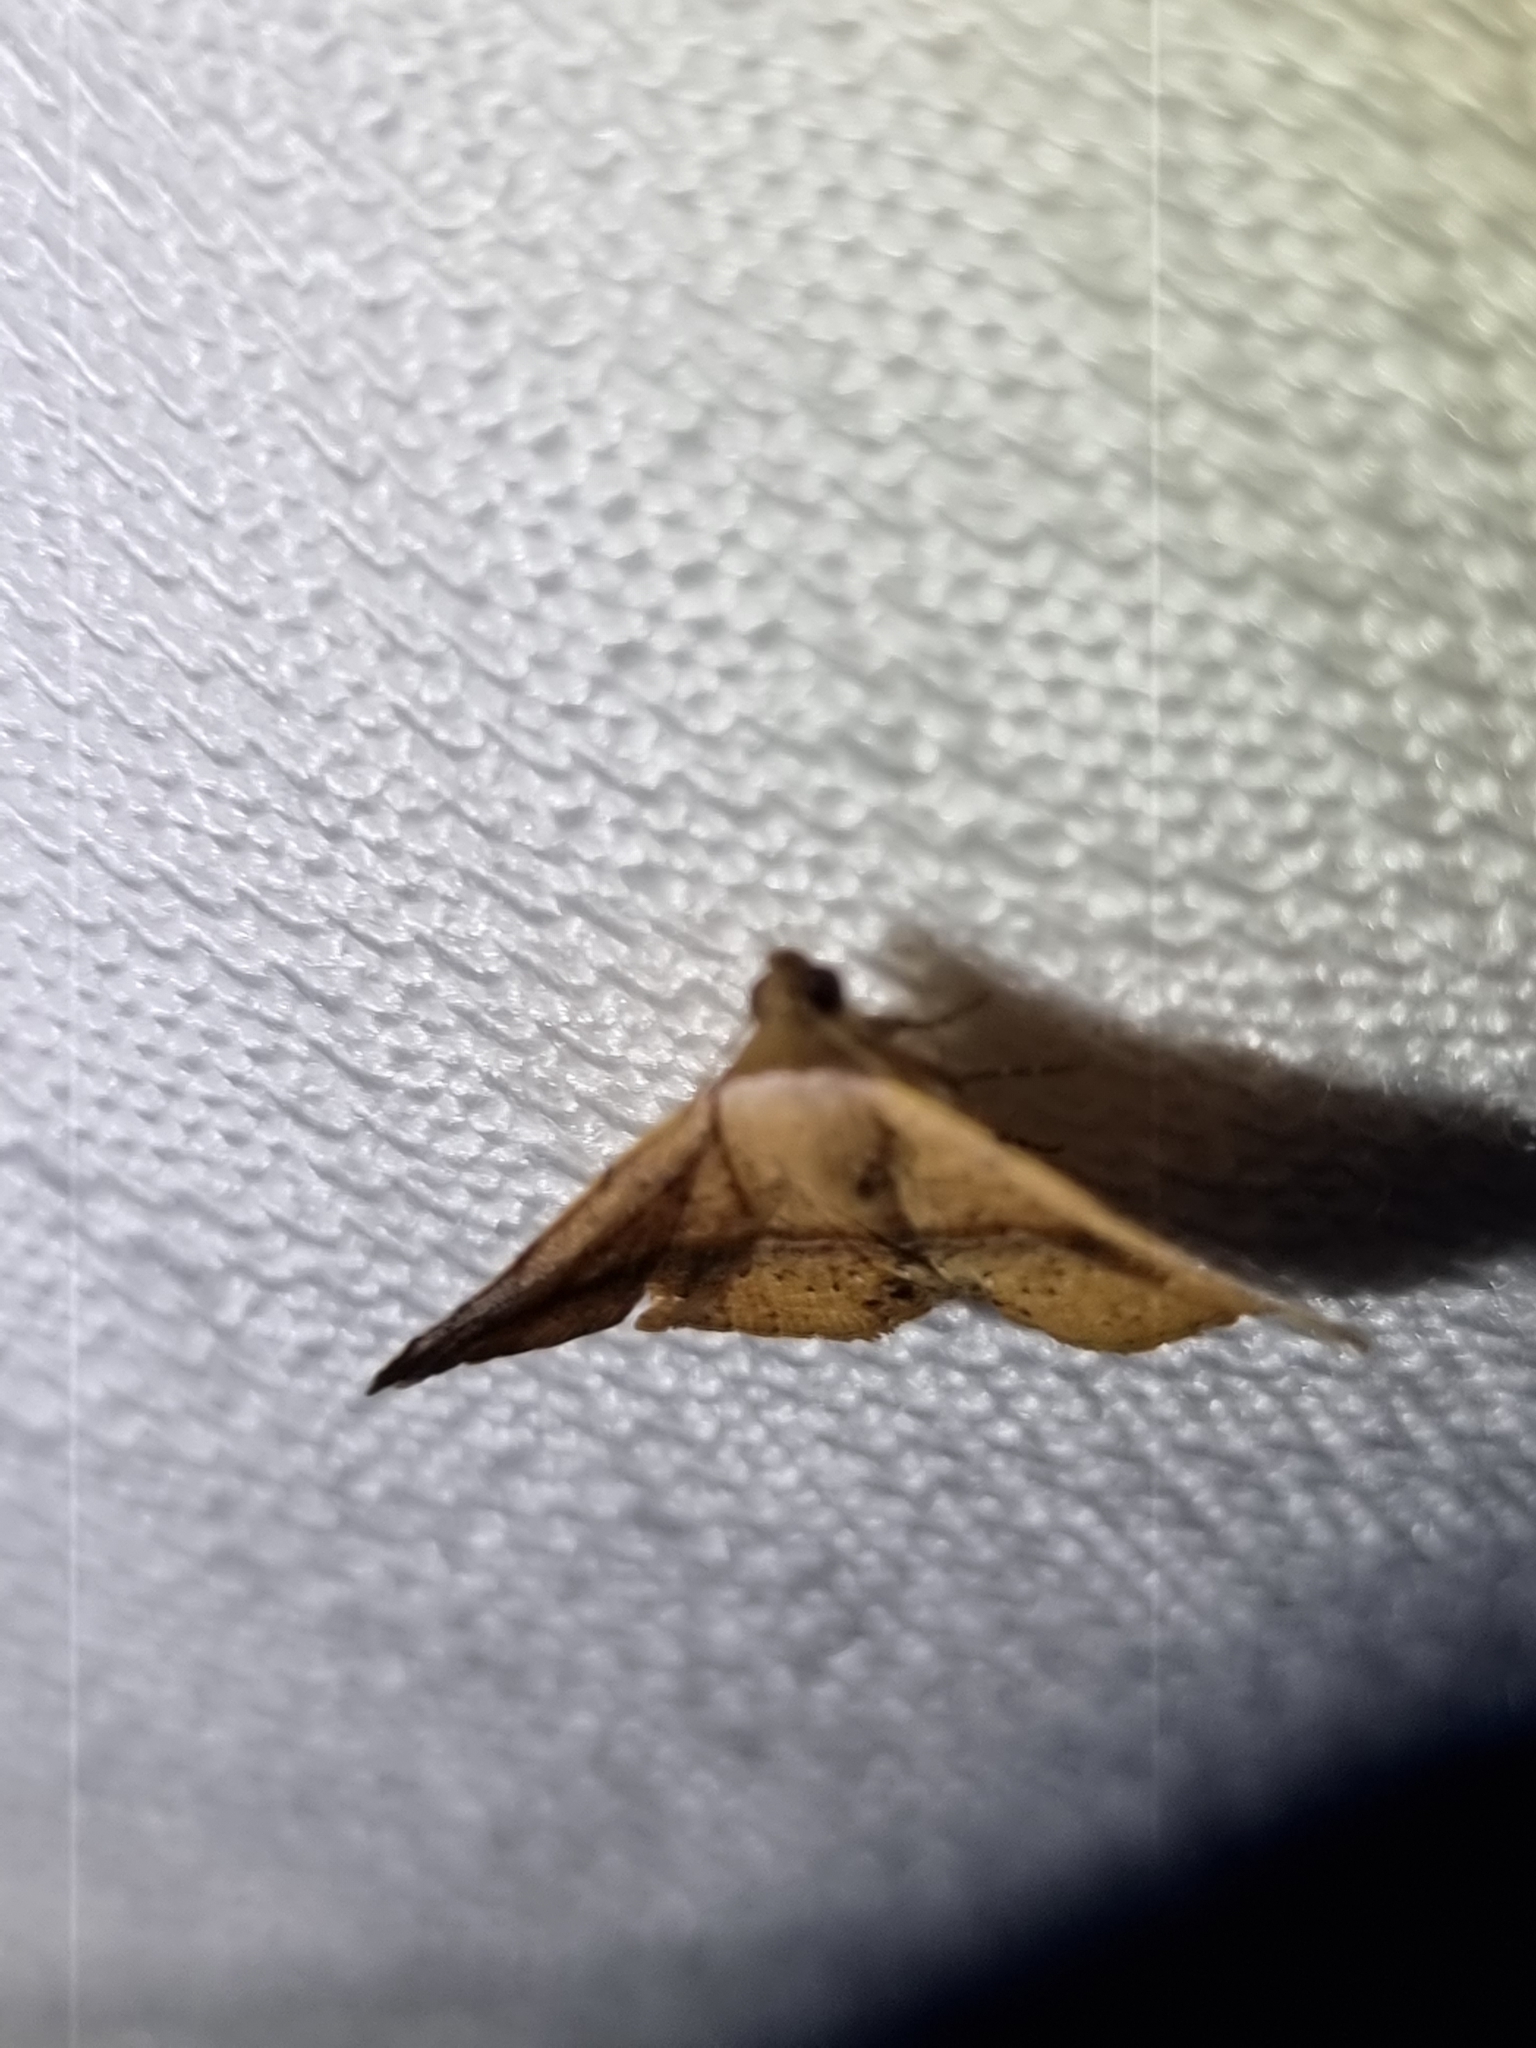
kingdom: Animalia
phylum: Arthropoda
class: Insecta
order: Lepidoptera
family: Noctuidae
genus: Eublemma
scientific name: Eublemma abrupta
